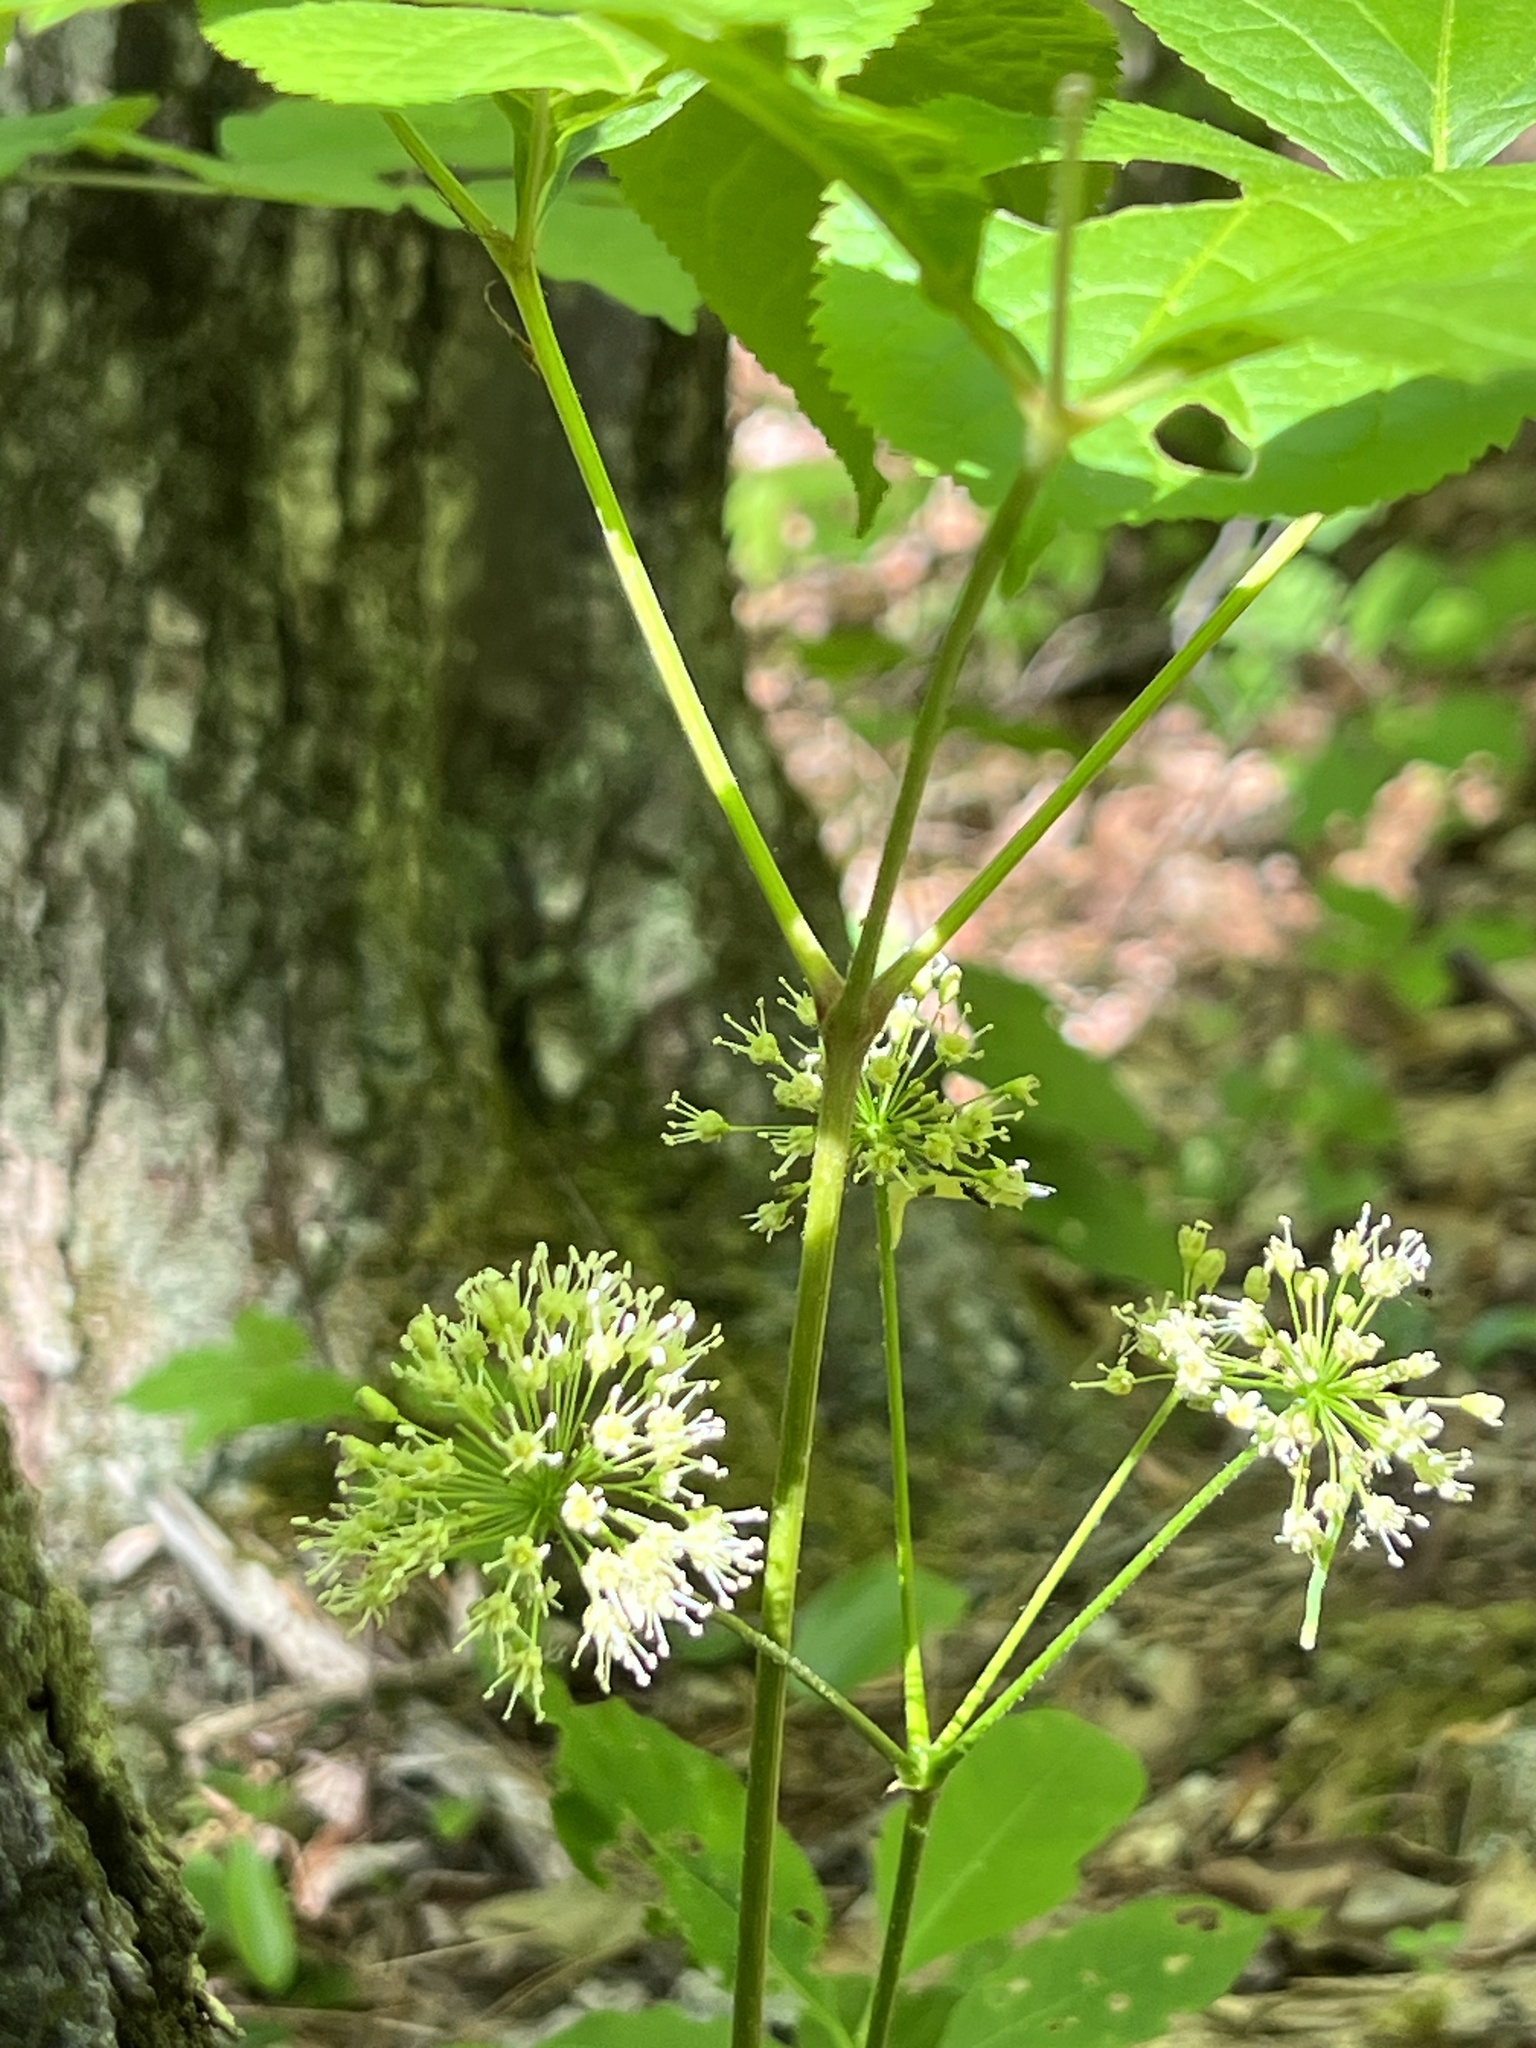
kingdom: Plantae
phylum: Tracheophyta
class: Magnoliopsida
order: Apiales
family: Araliaceae
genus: Aralia
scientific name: Aralia nudicaulis
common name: Wild sarsaparilla
